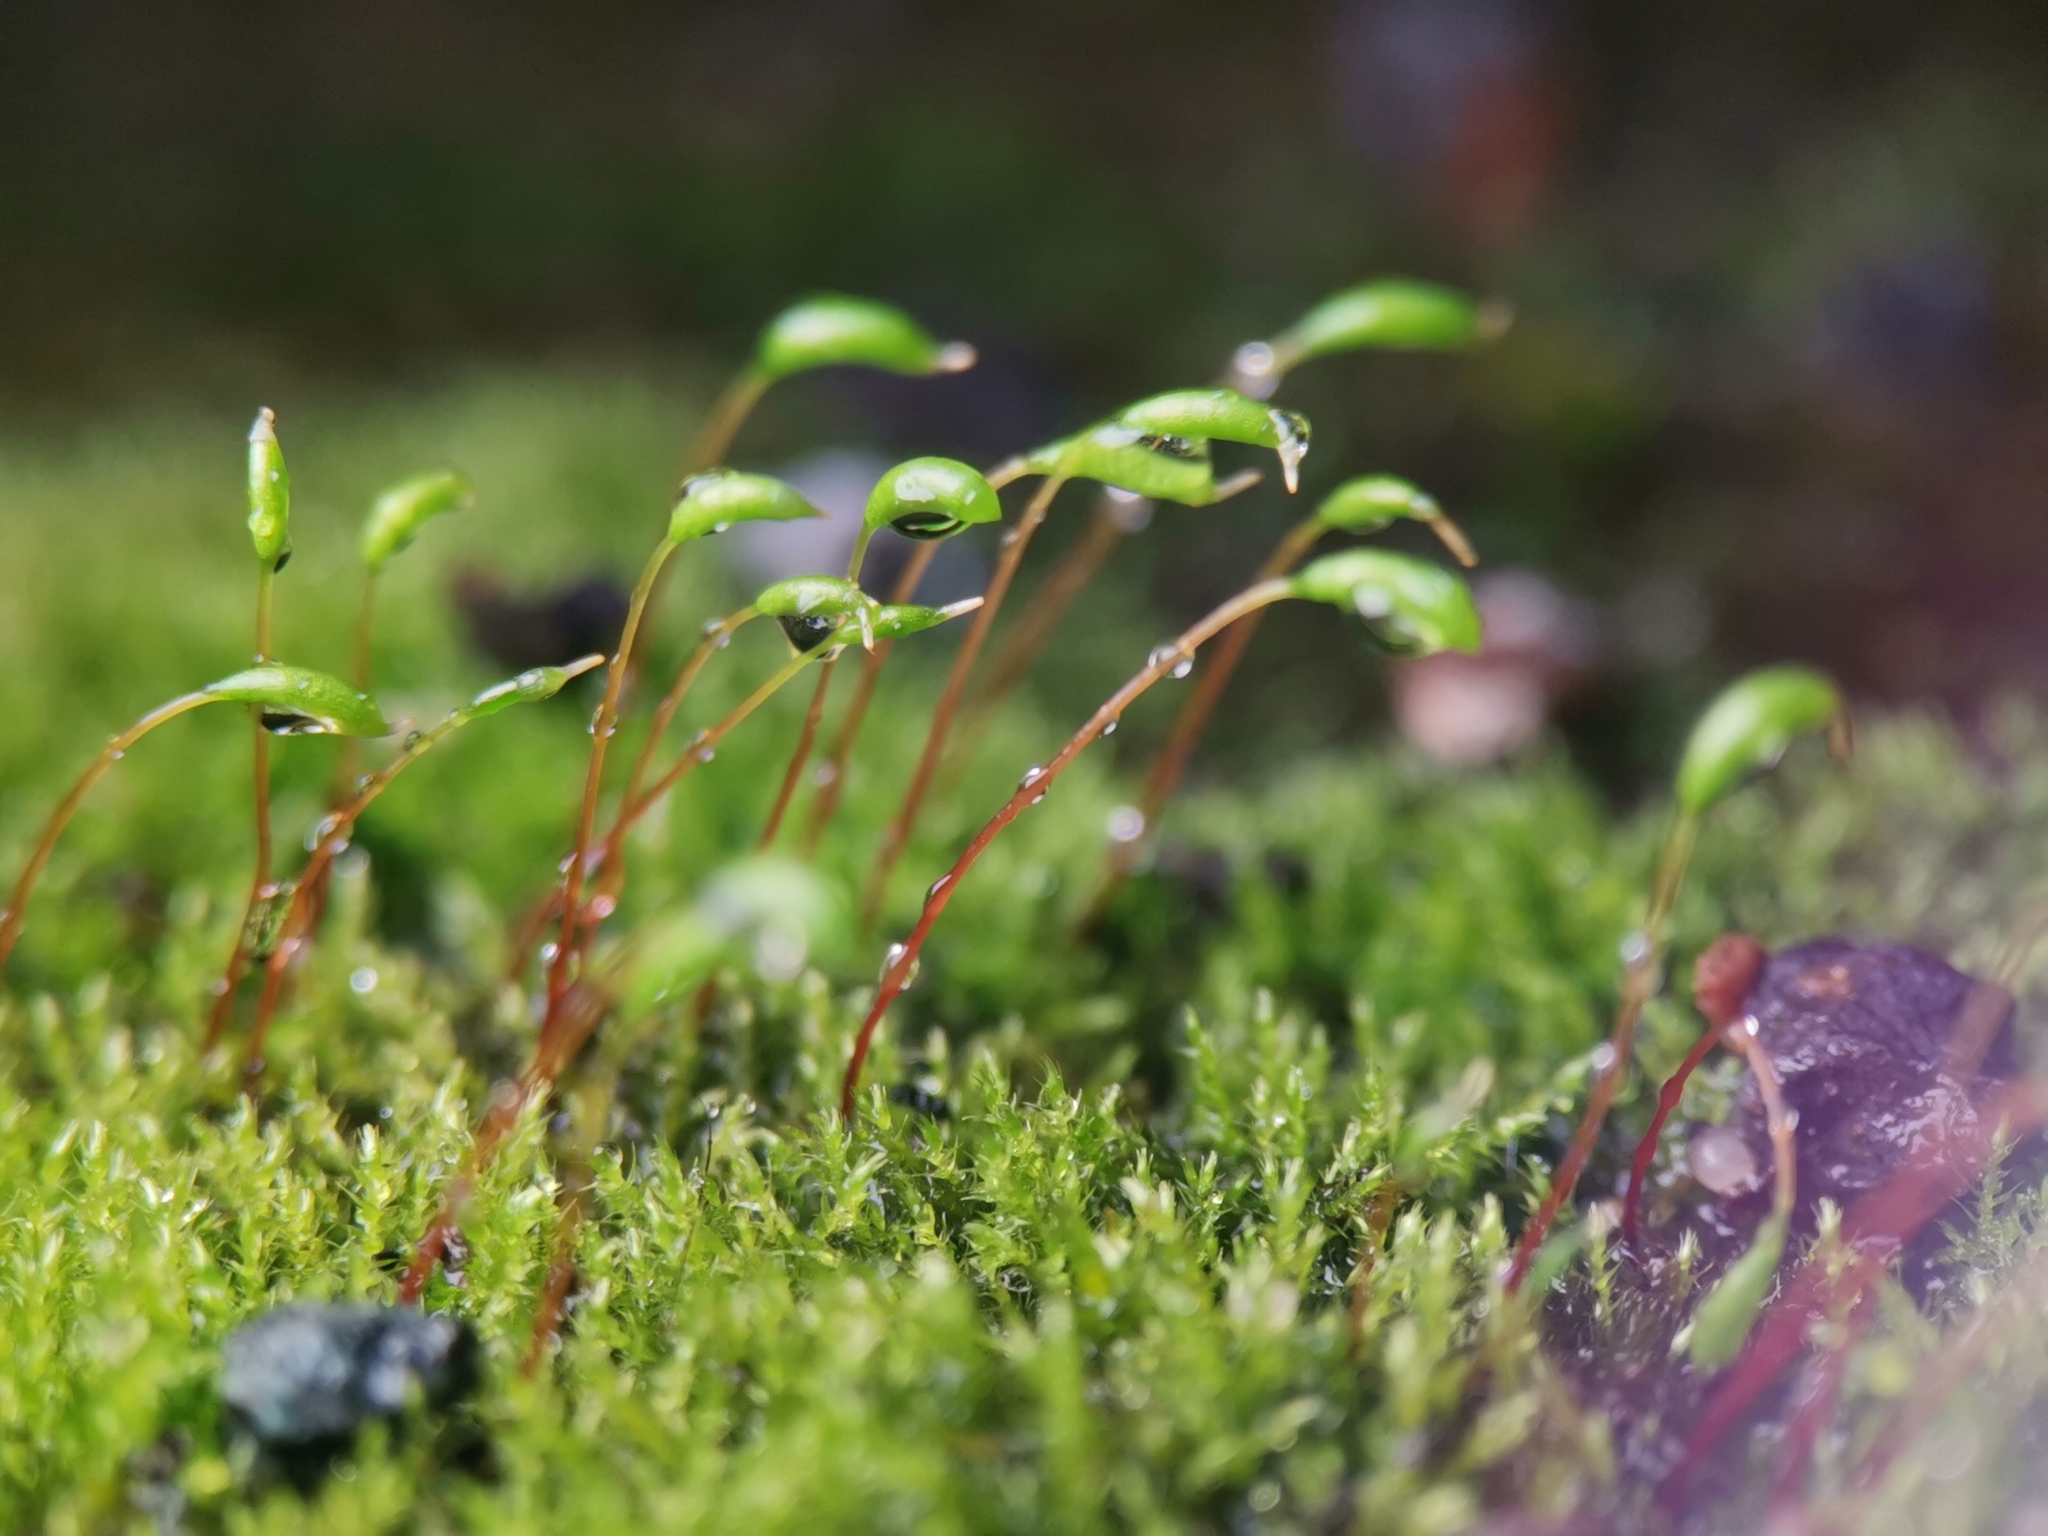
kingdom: Plantae
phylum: Bryophyta
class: Bryopsida
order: Hypnales
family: Amblystegiaceae
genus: Amblystegium
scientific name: Amblystegium serpens
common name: Jurkatzka's feather moss
